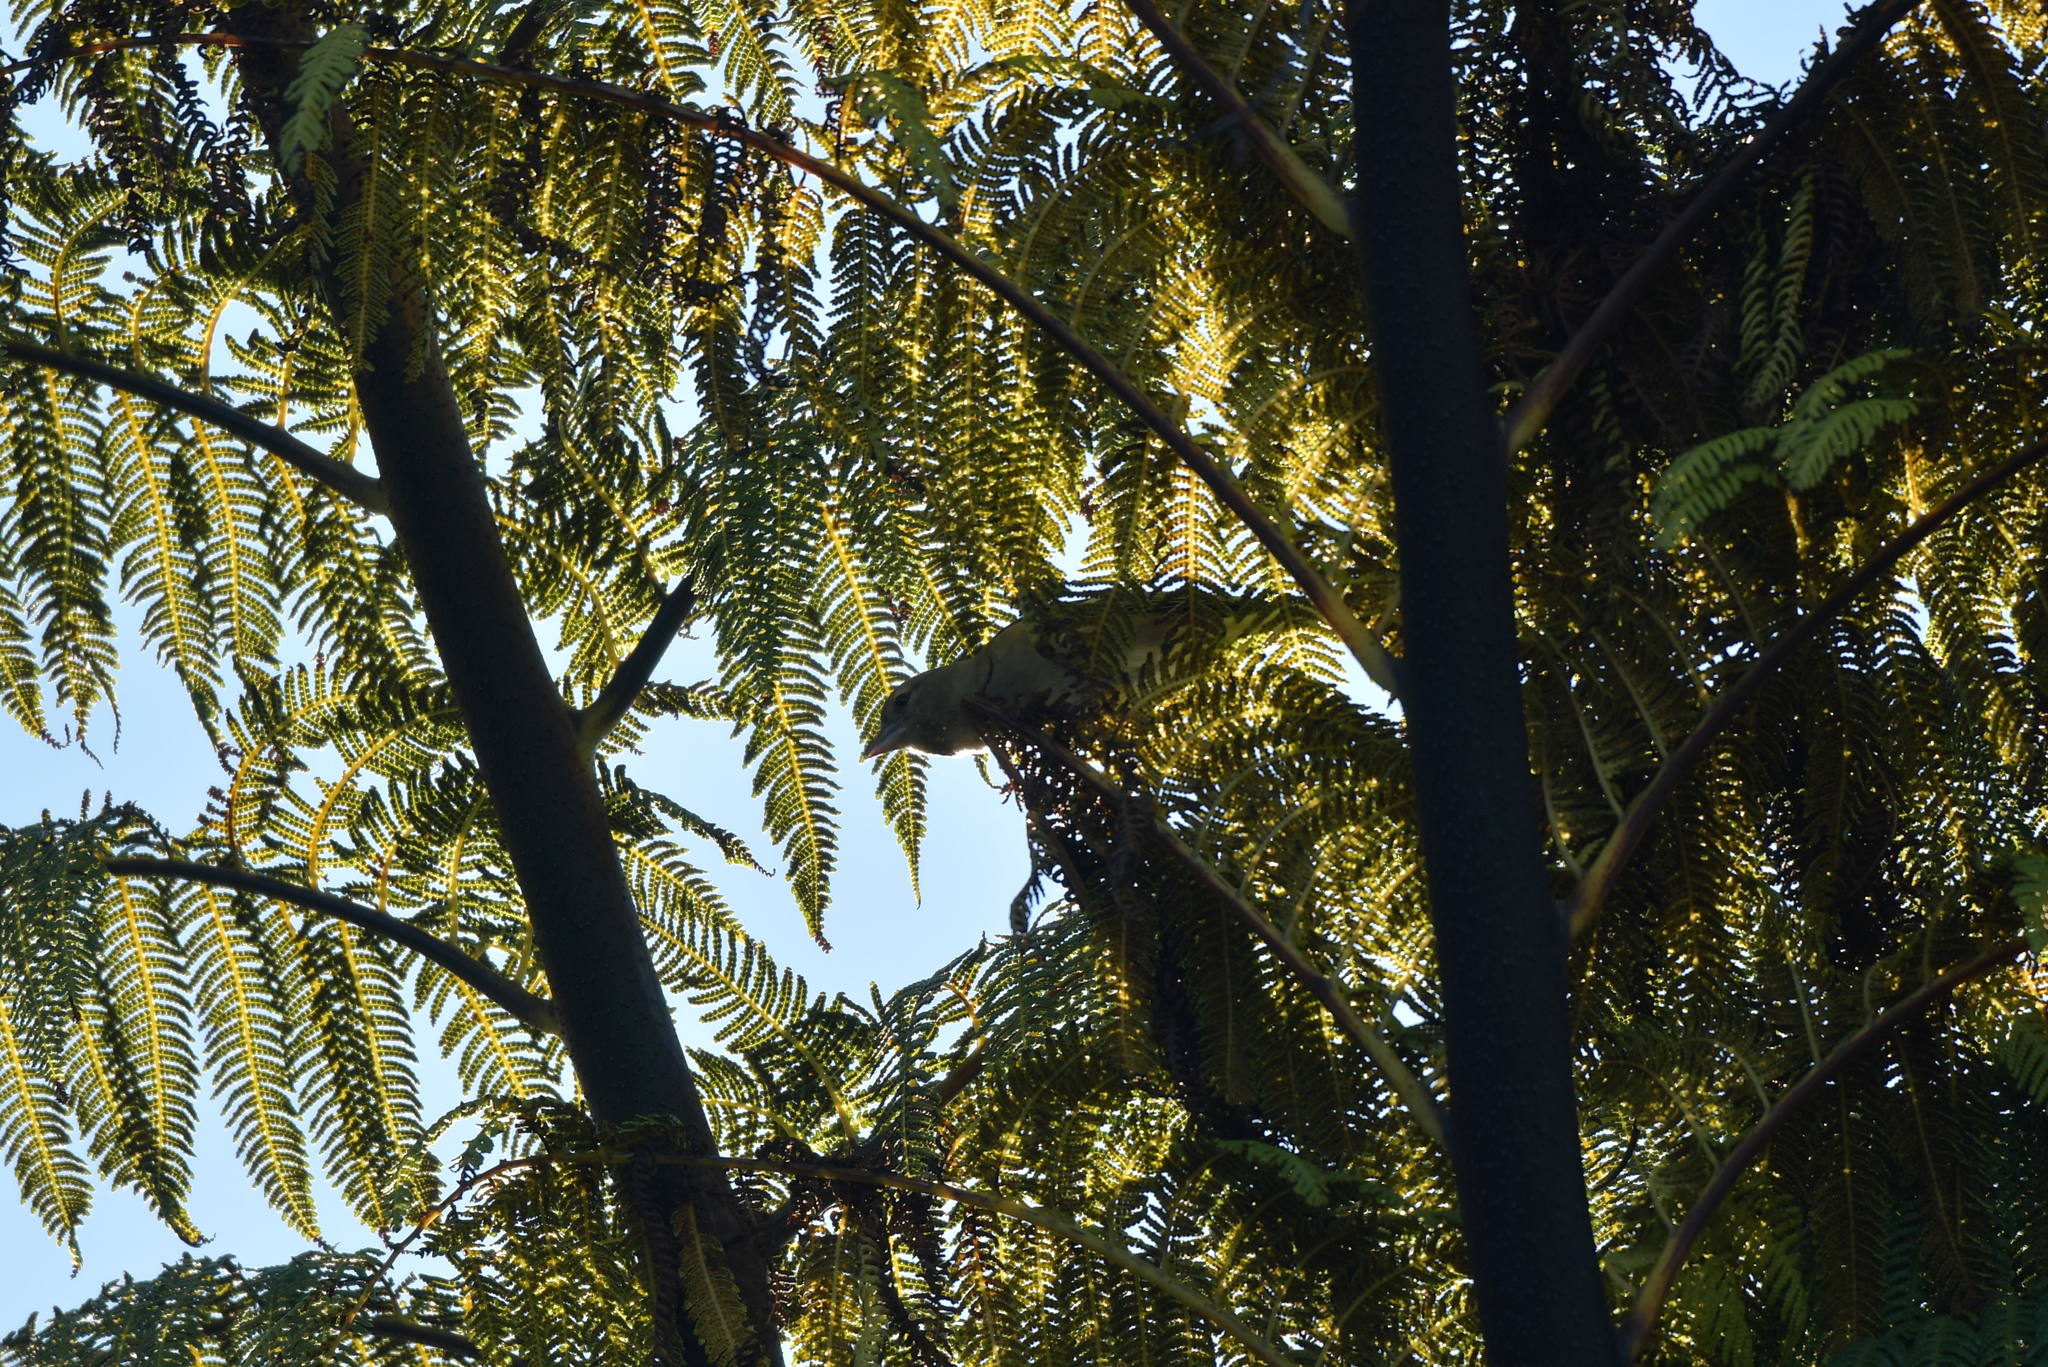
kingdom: Animalia
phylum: Chordata
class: Aves
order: Passeriformes
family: Fringillidae
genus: Fringilla
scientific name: Fringilla coelebs
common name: Common chaffinch
